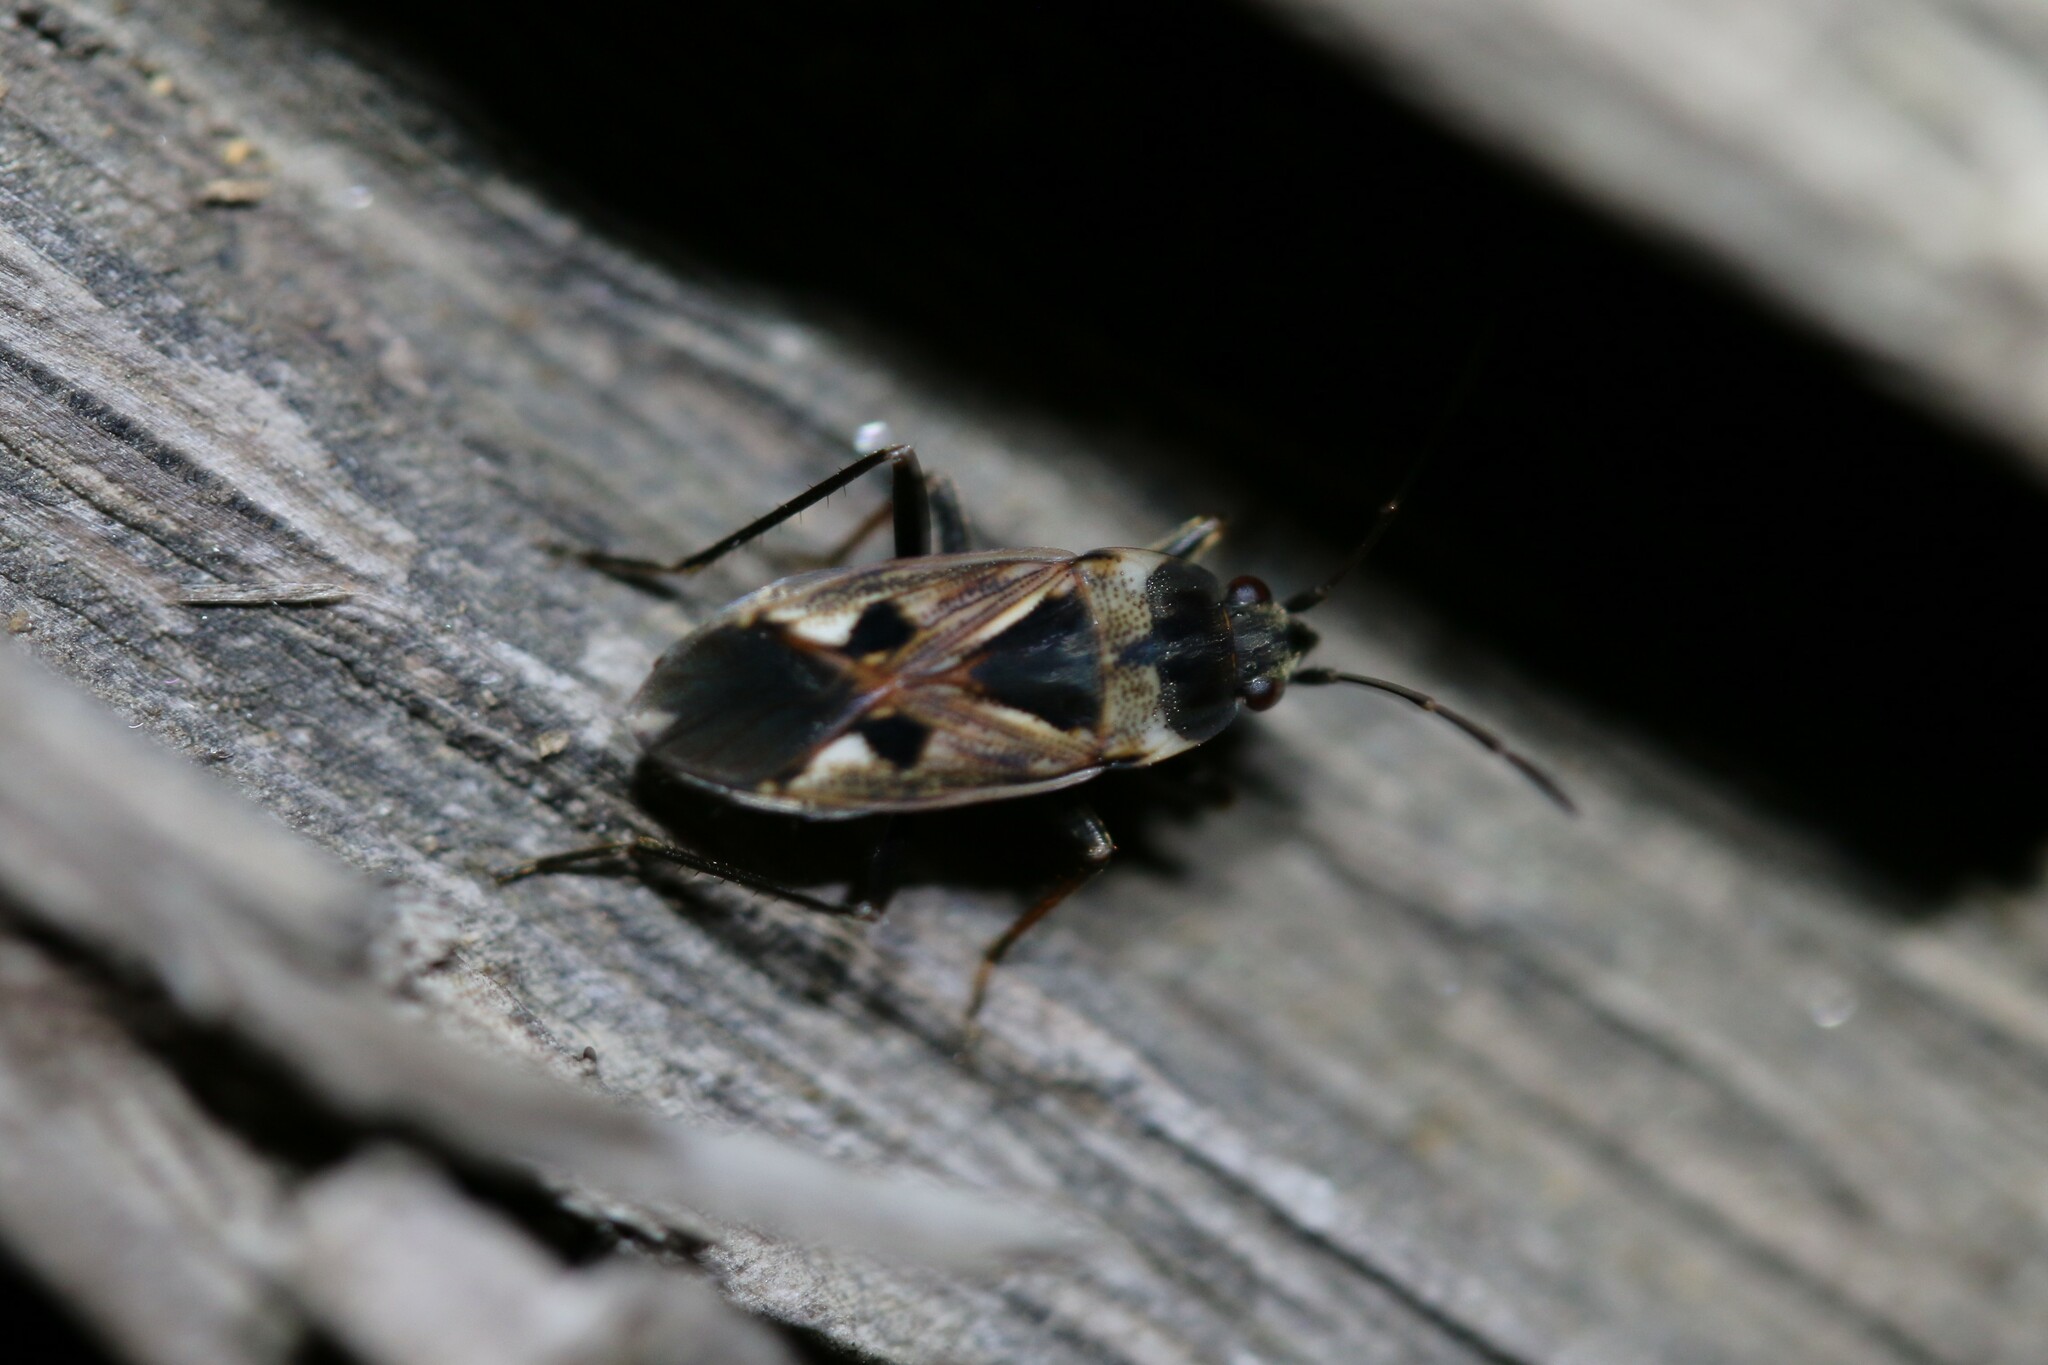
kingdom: Animalia
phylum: Arthropoda
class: Insecta
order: Hemiptera
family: Rhyparochromidae
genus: Rhyparochromus
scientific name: Rhyparochromus vulgaris
